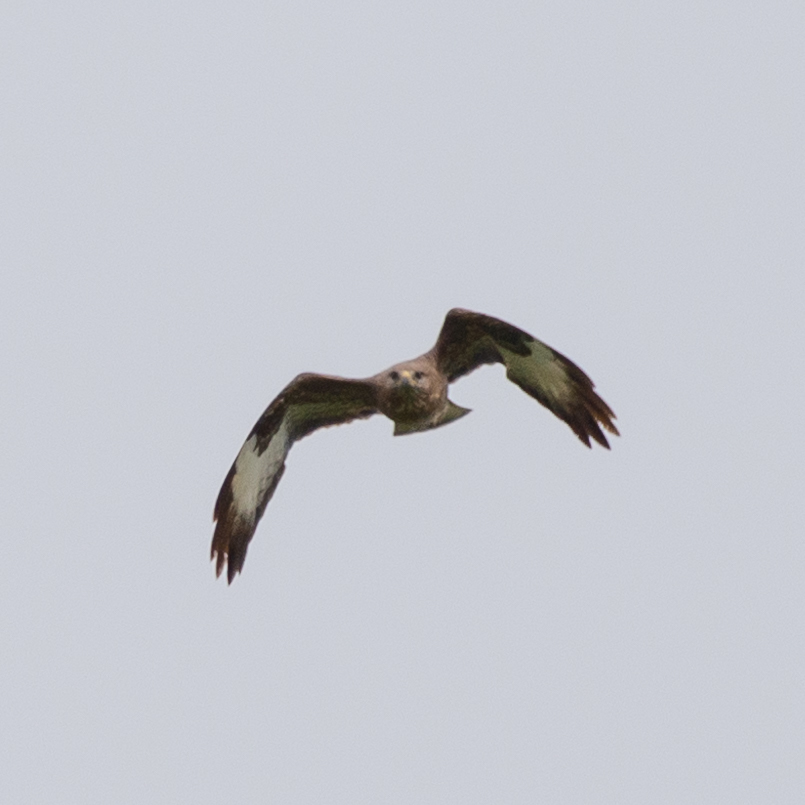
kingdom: Animalia
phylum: Chordata
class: Aves
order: Accipitriformes
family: Accipitridae
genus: Buteo
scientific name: Buteo buteo
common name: Common buzzard
